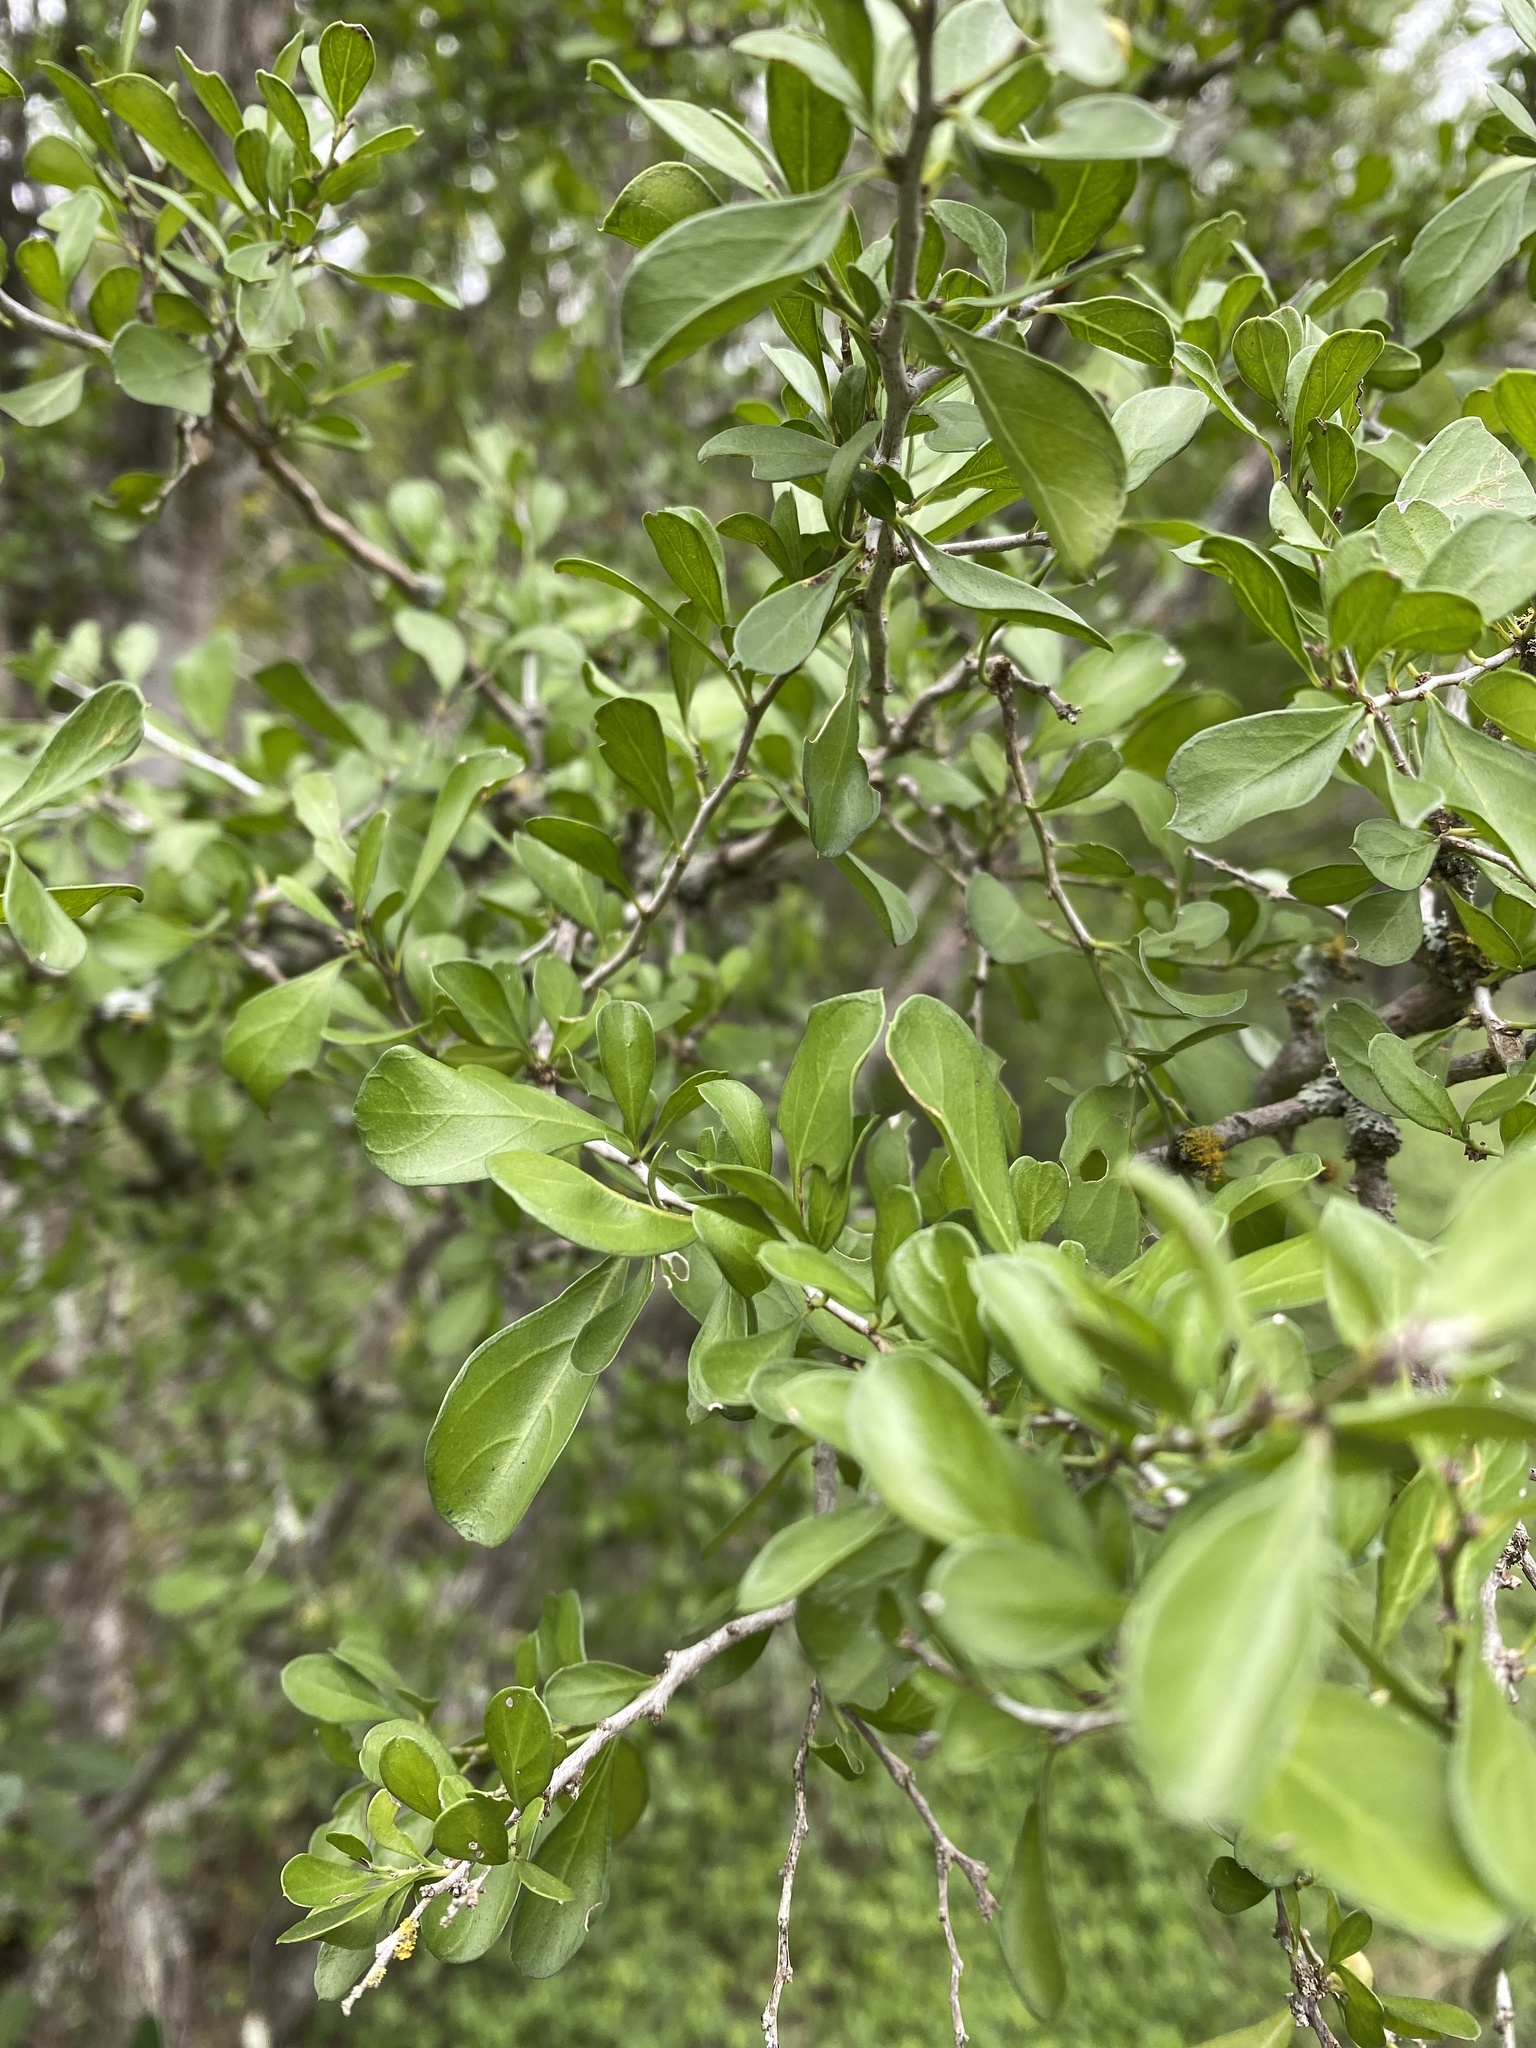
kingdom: Plantae
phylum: Tracheophyta
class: Magnoliopsida
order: Rosales
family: Rhamnaceae
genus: Condalia
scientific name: Condalia hookeri
